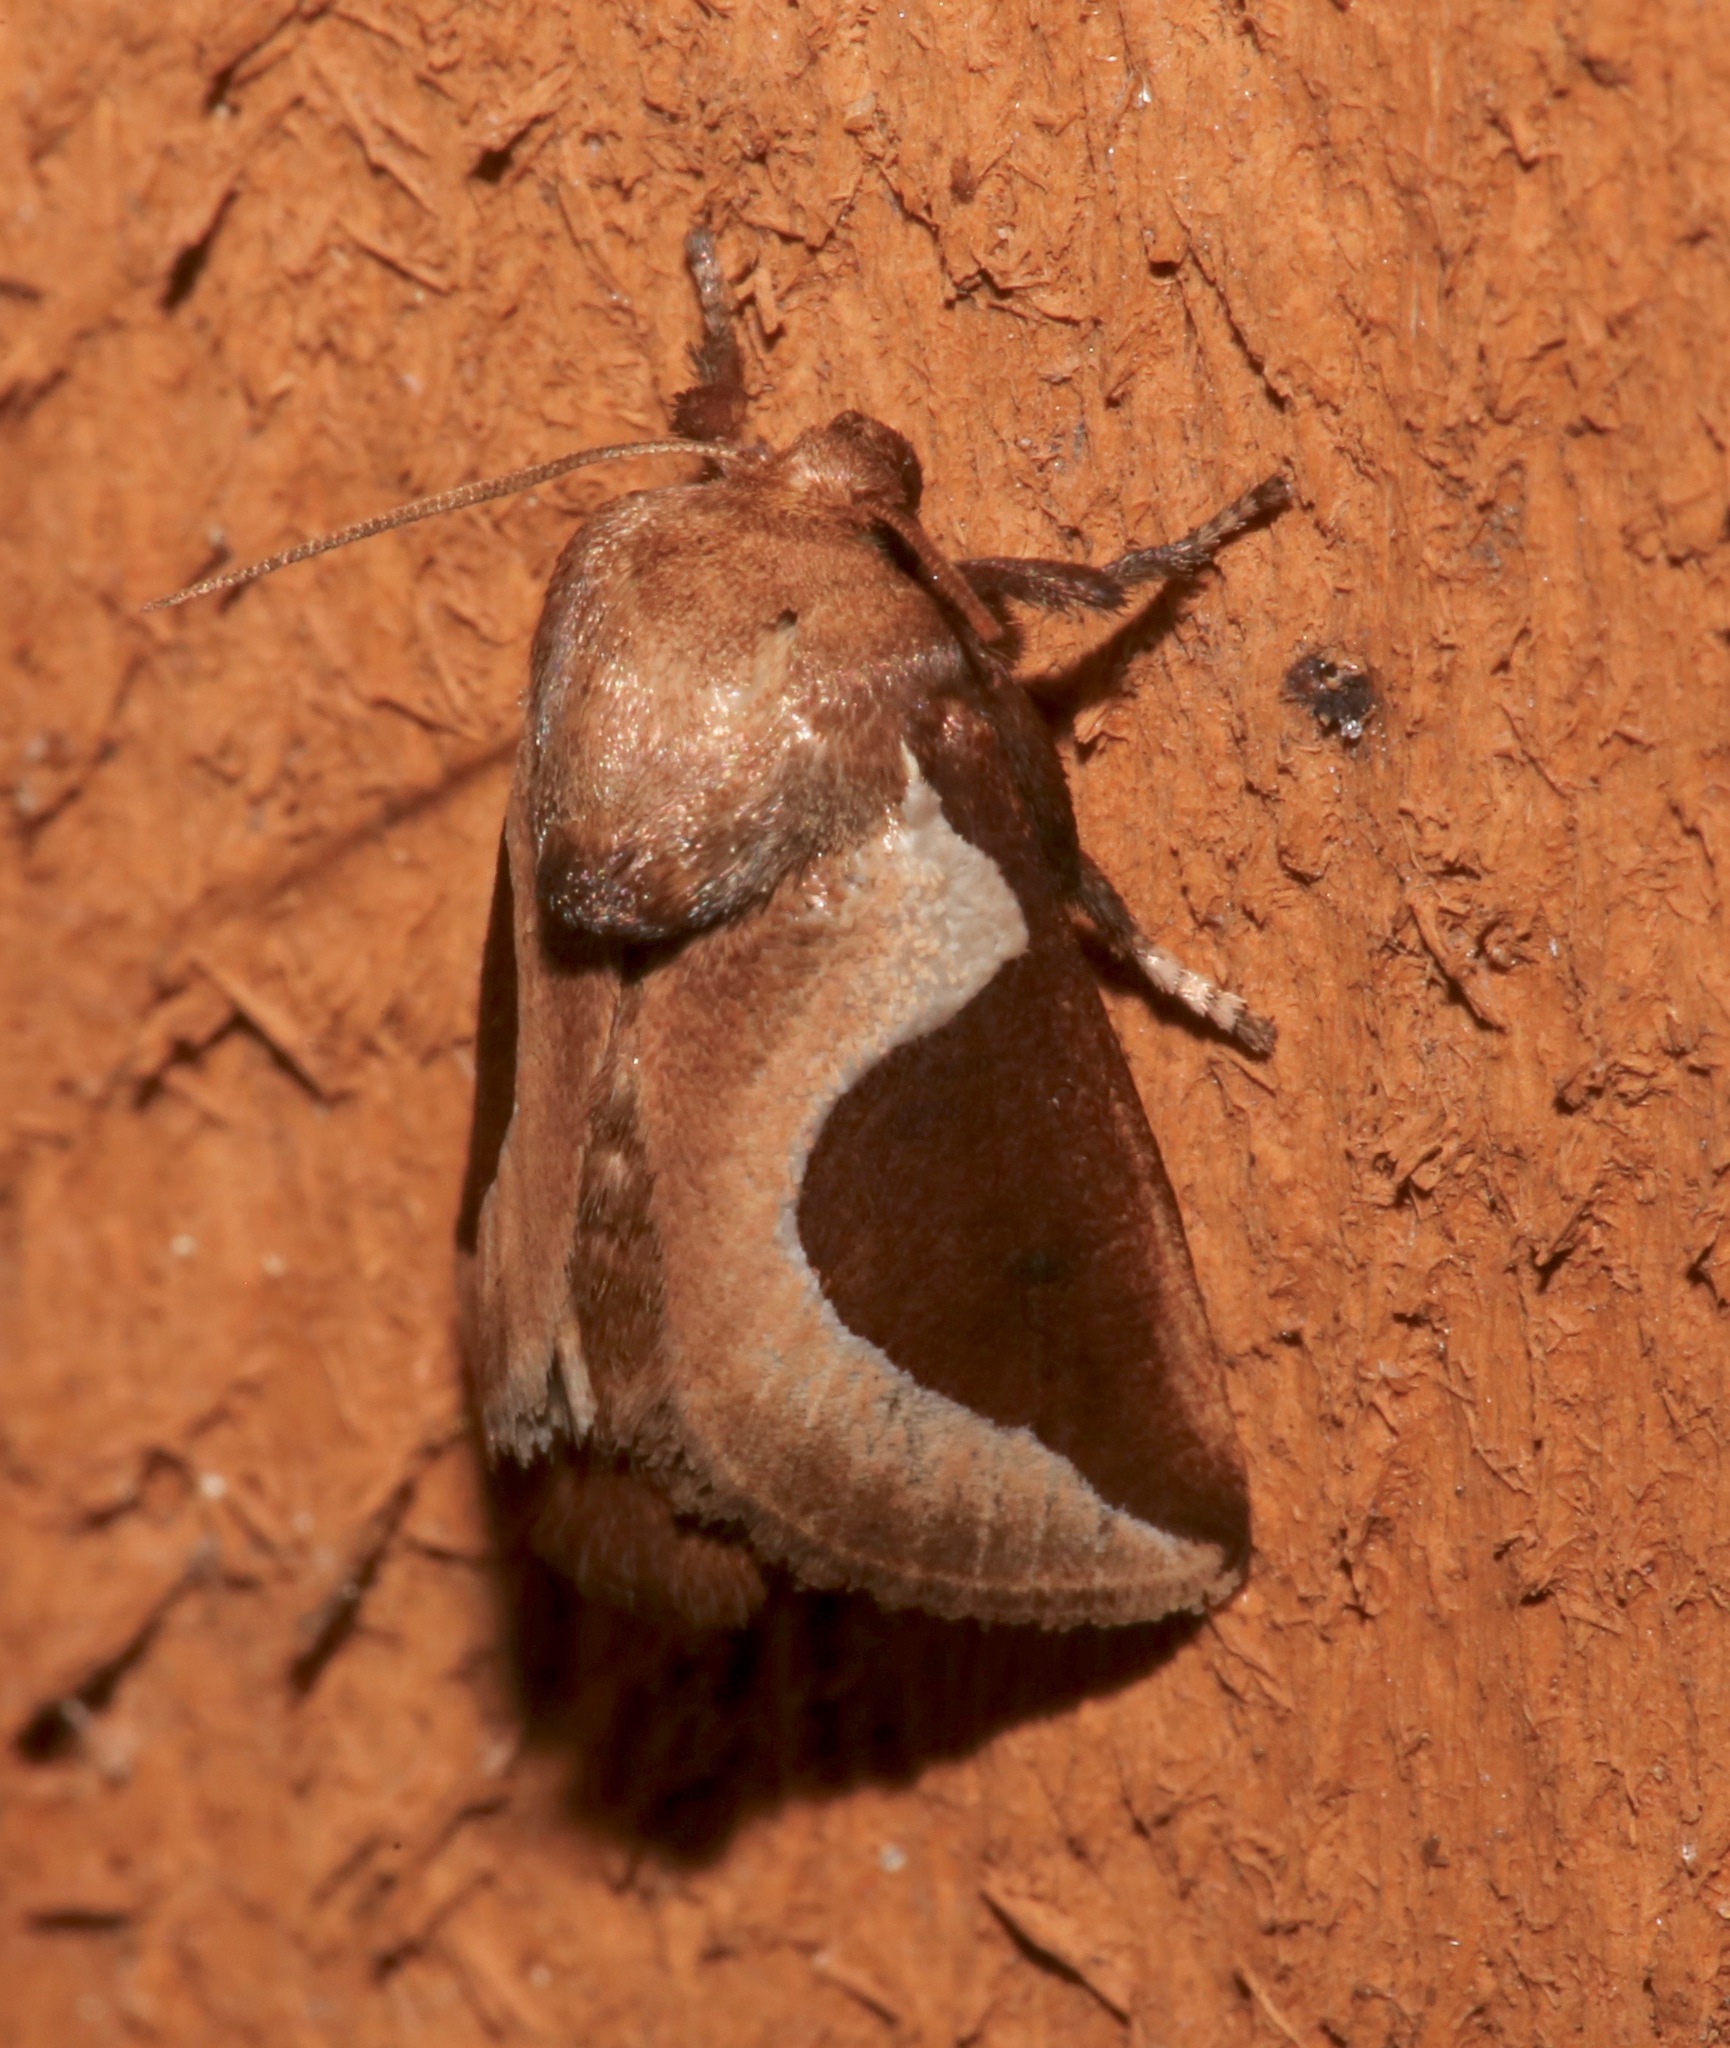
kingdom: Animalia
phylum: Arthropoda
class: Insecta
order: Lepidoptera
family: Limacodidae
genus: Prolimacodes
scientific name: Prolimacodes badia
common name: Skiff moth
